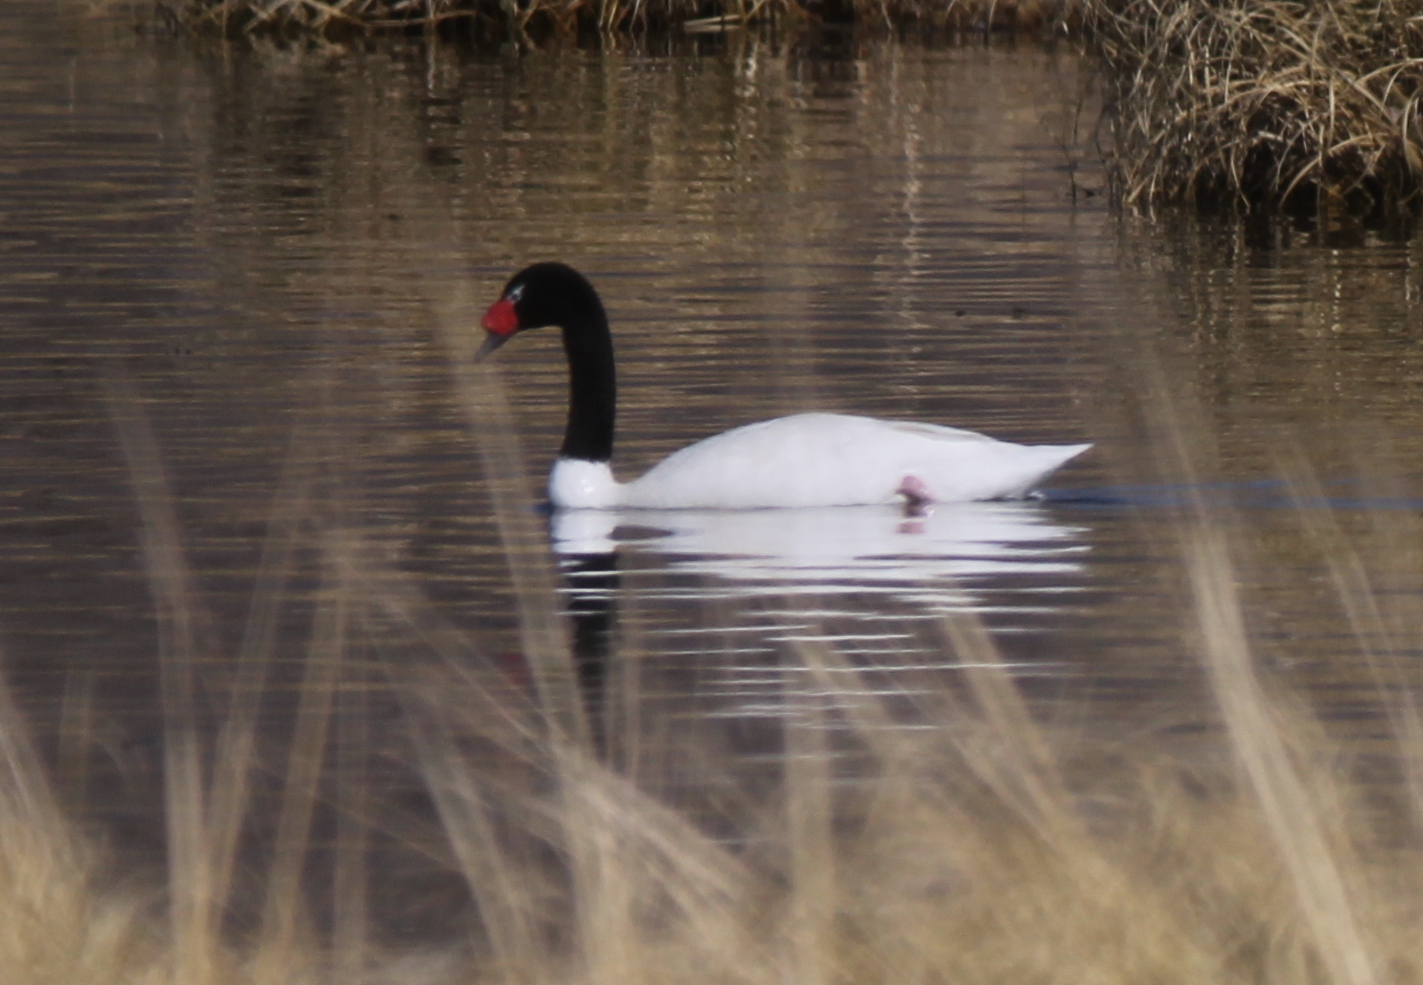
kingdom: Animalia
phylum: Chordata
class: Aves
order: Anseriformes
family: Anatidae
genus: Cygnus
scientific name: Cygnus melancoryphus
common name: Black-necked swan
